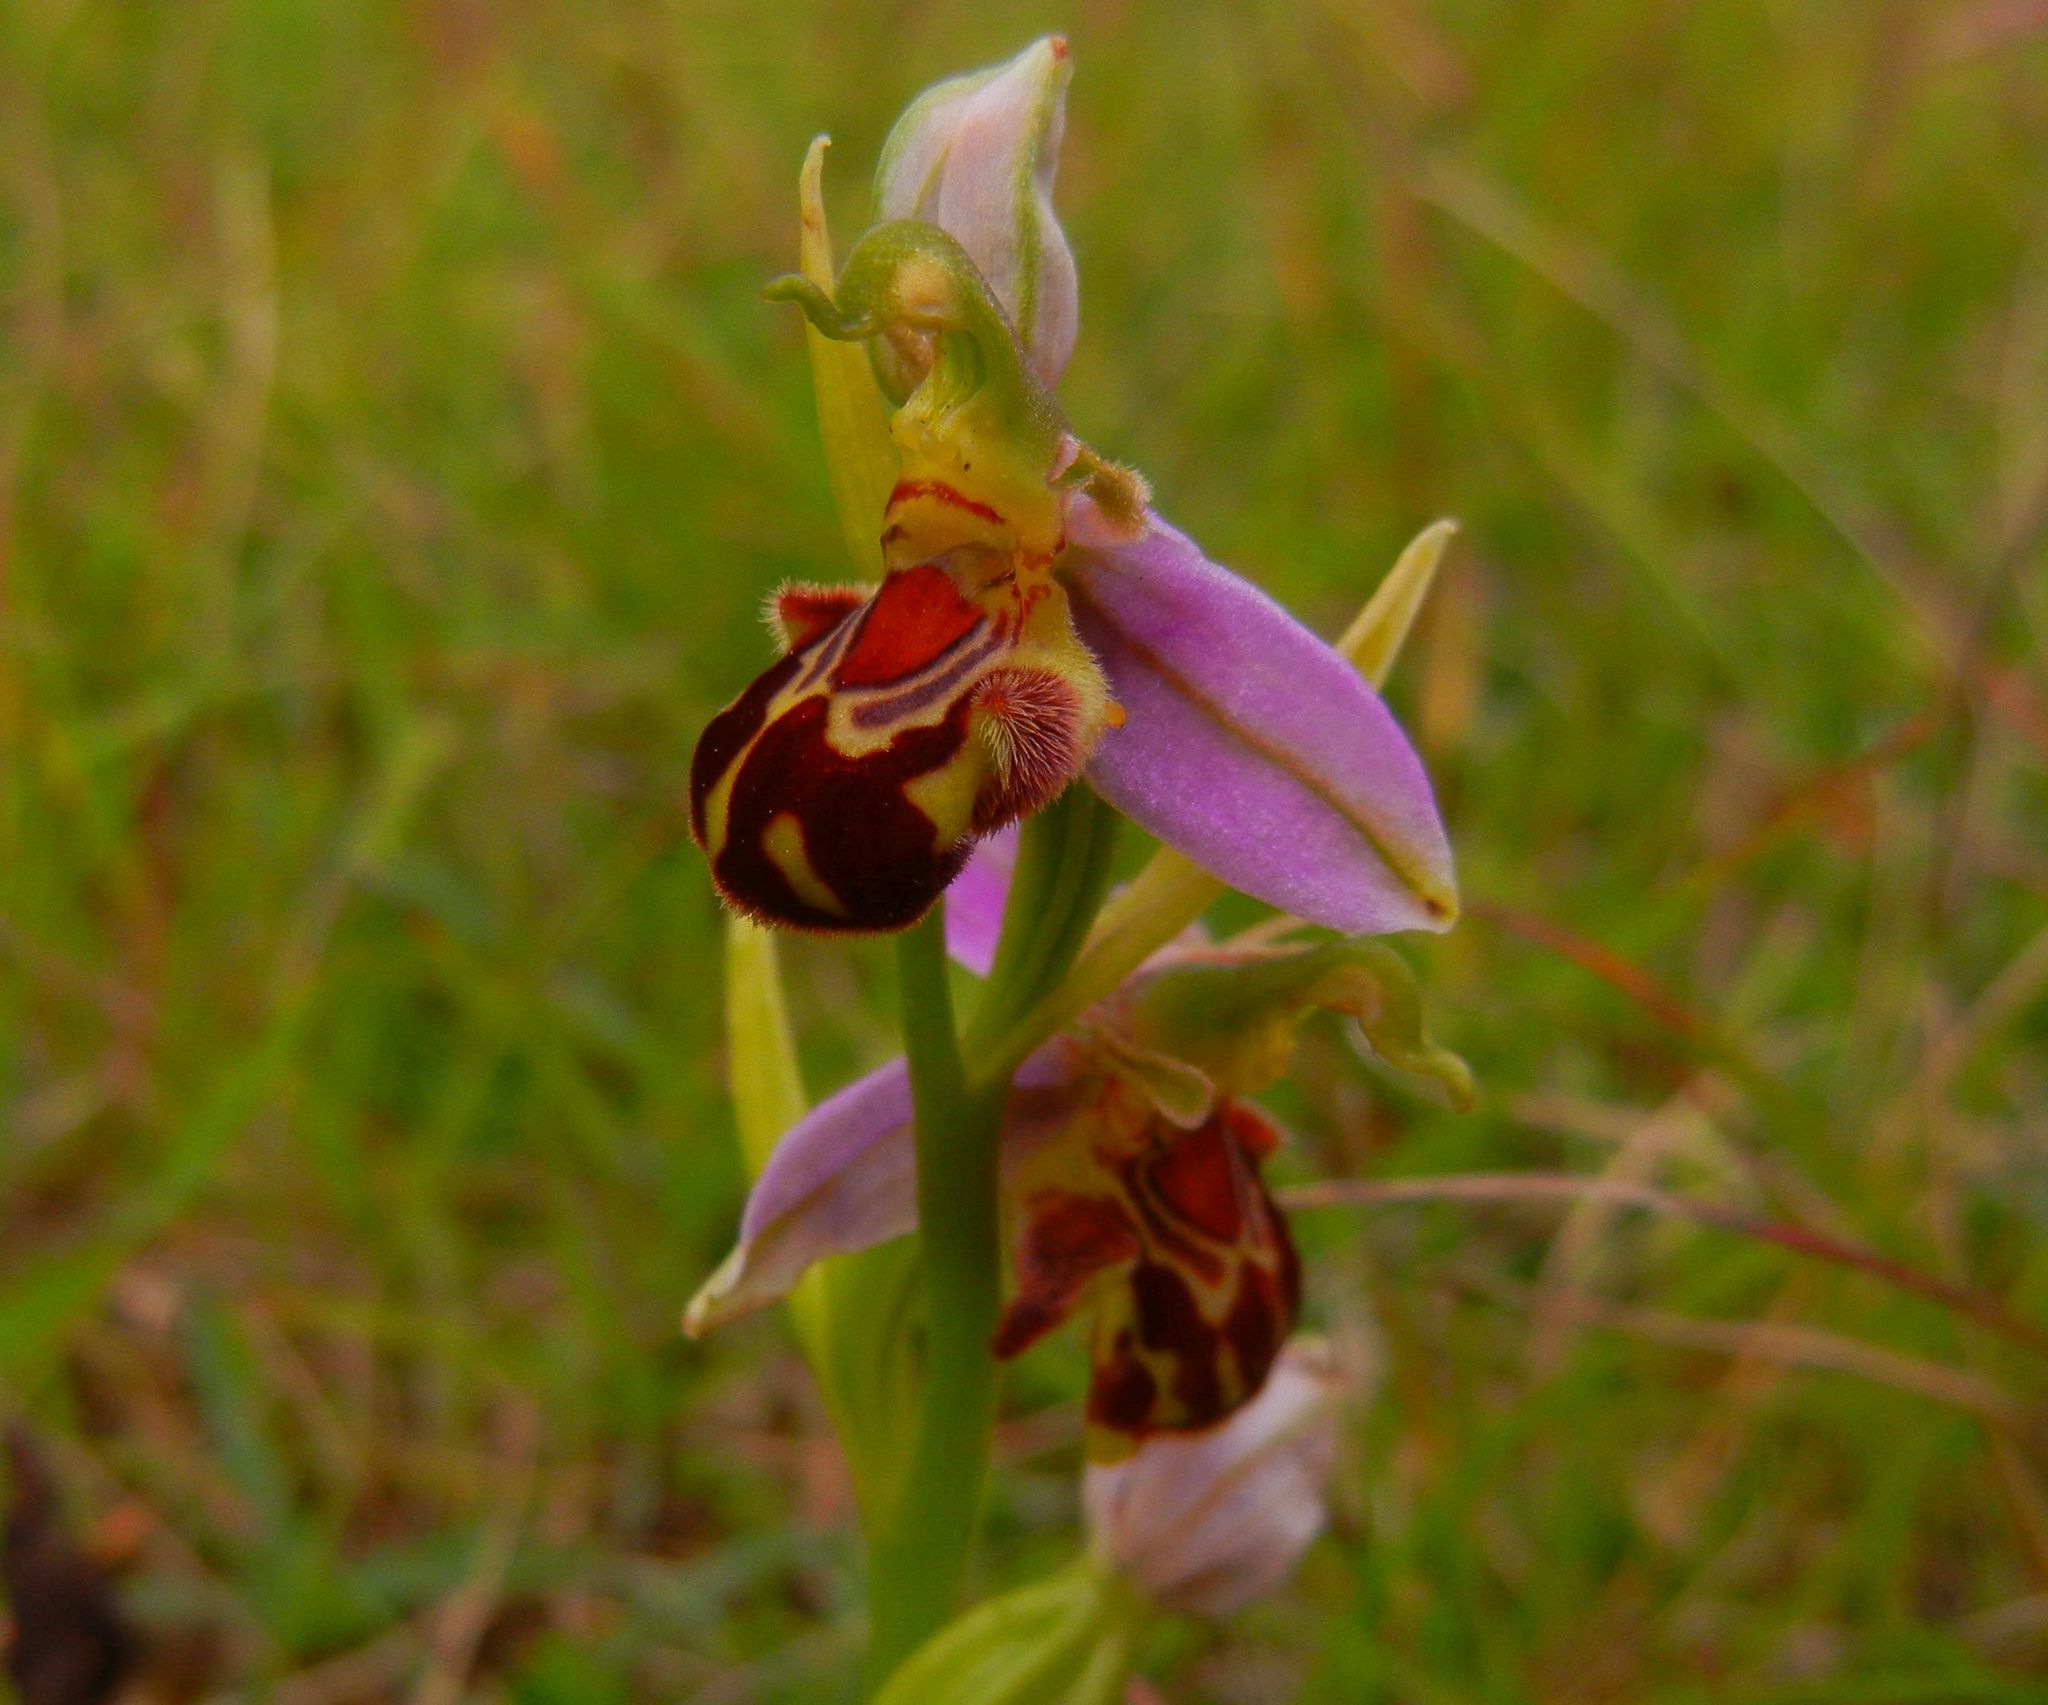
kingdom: Plantae
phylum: Tracheophyta
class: Liliopsida
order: Asparagales
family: Orchidaceae
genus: Ophrys
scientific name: Ophrys apifera
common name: Bee orchid
